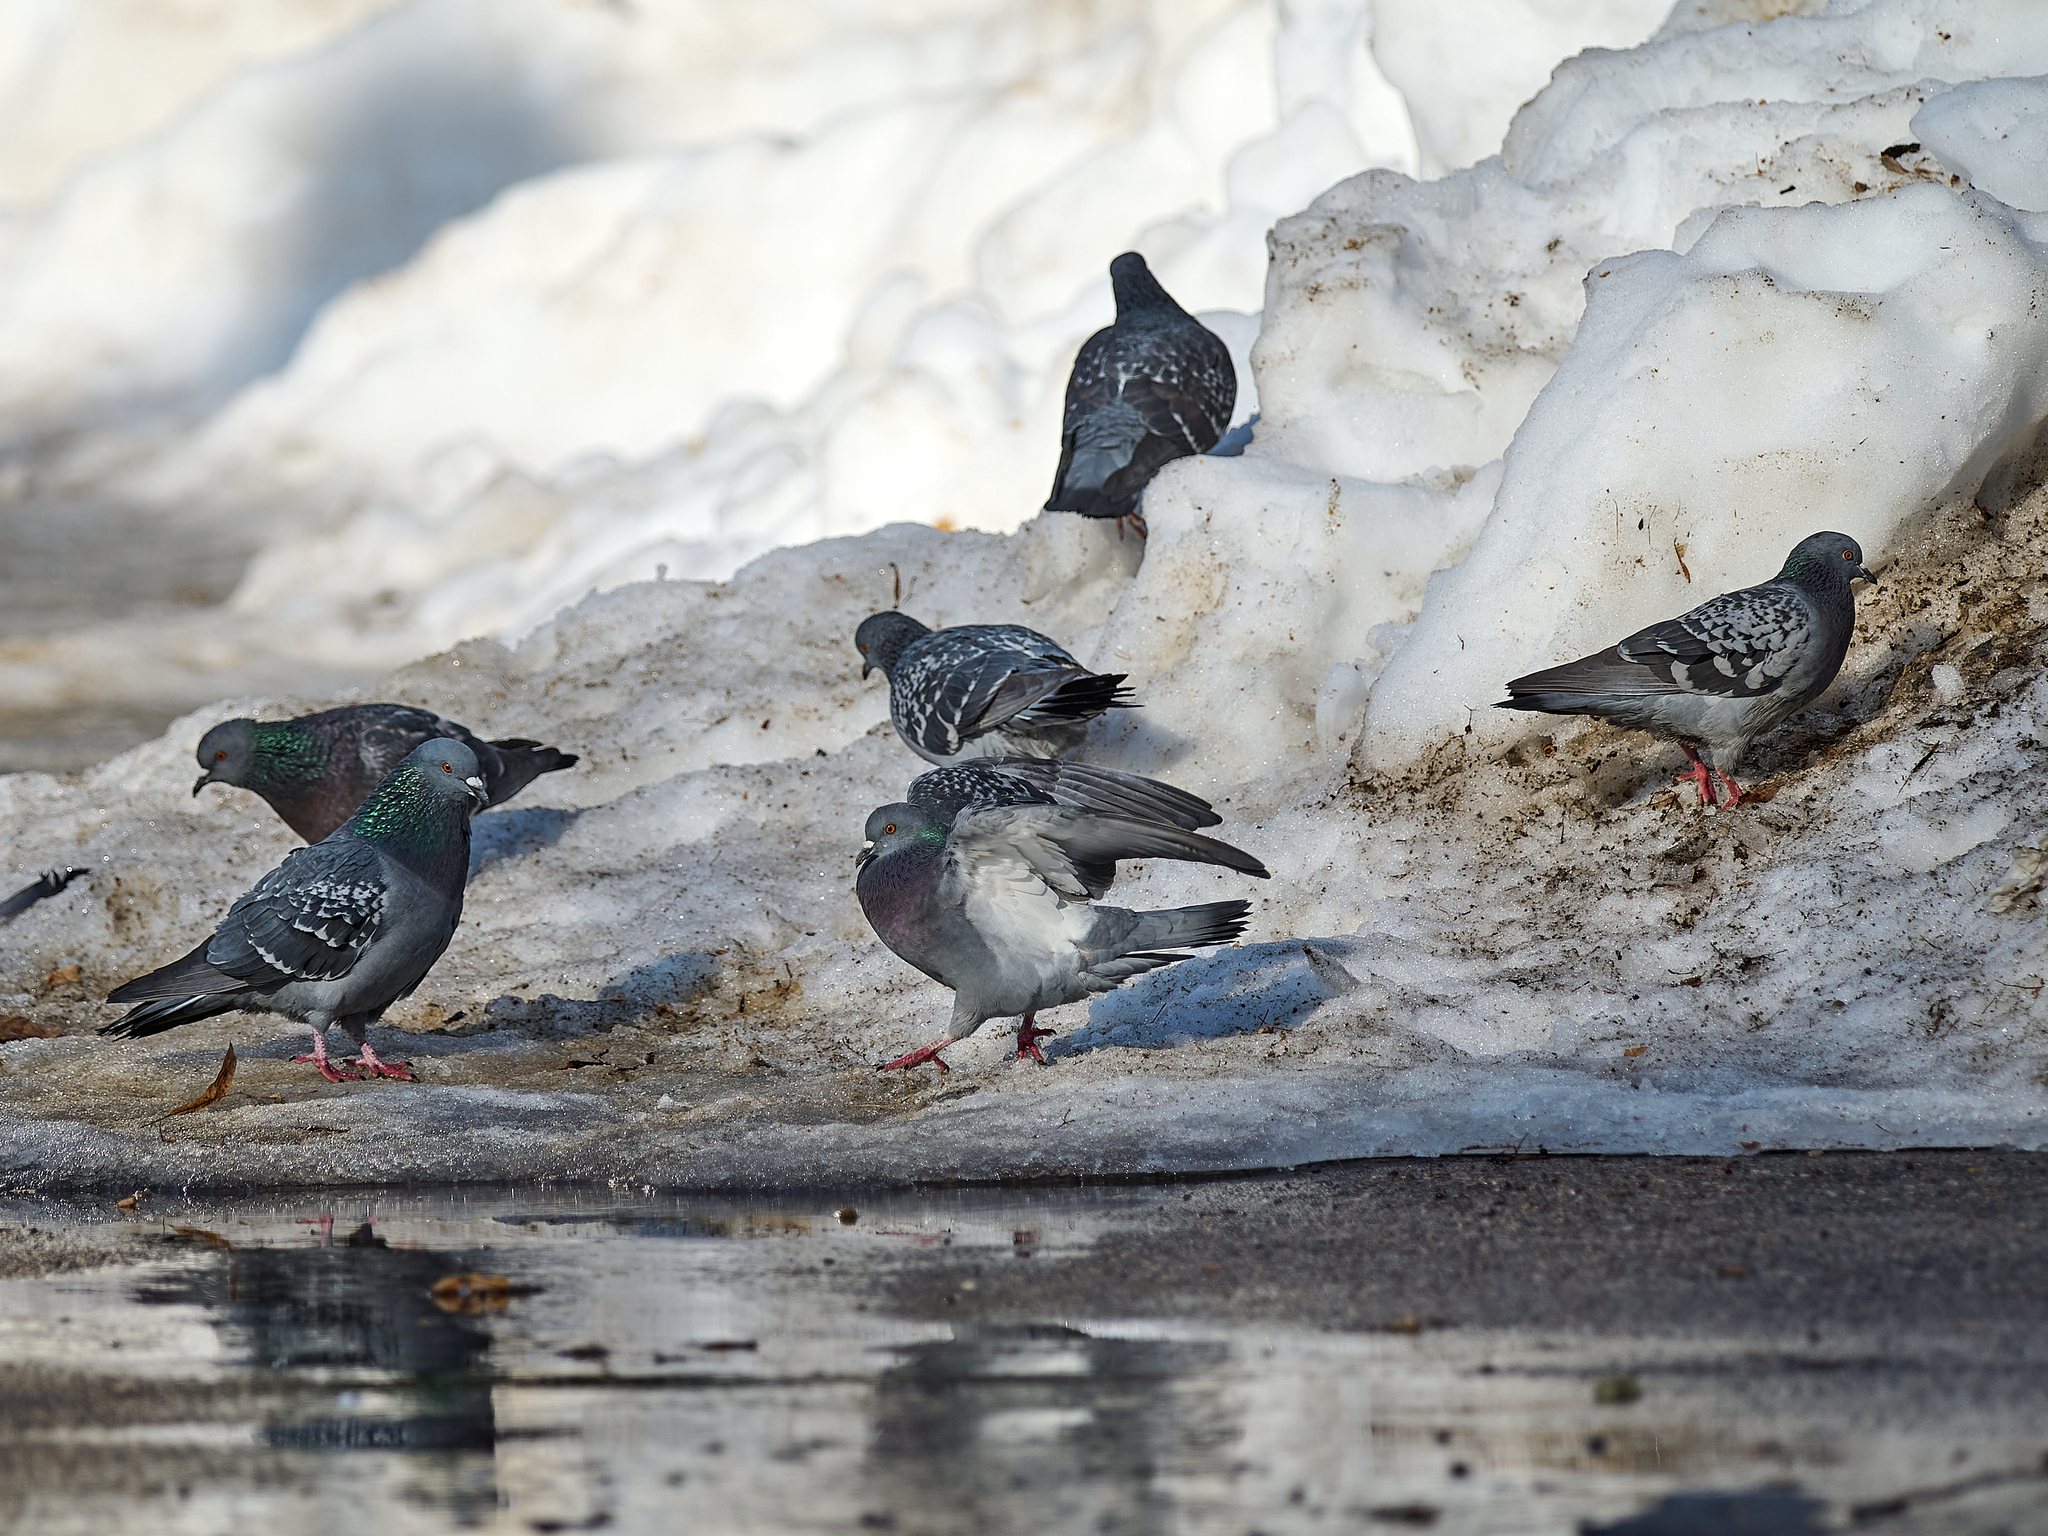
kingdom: Animalia
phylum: Chordata
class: Aves
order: Columbiformes
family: Columbidae
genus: Columba
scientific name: Columba livia
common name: Rock pigeon
